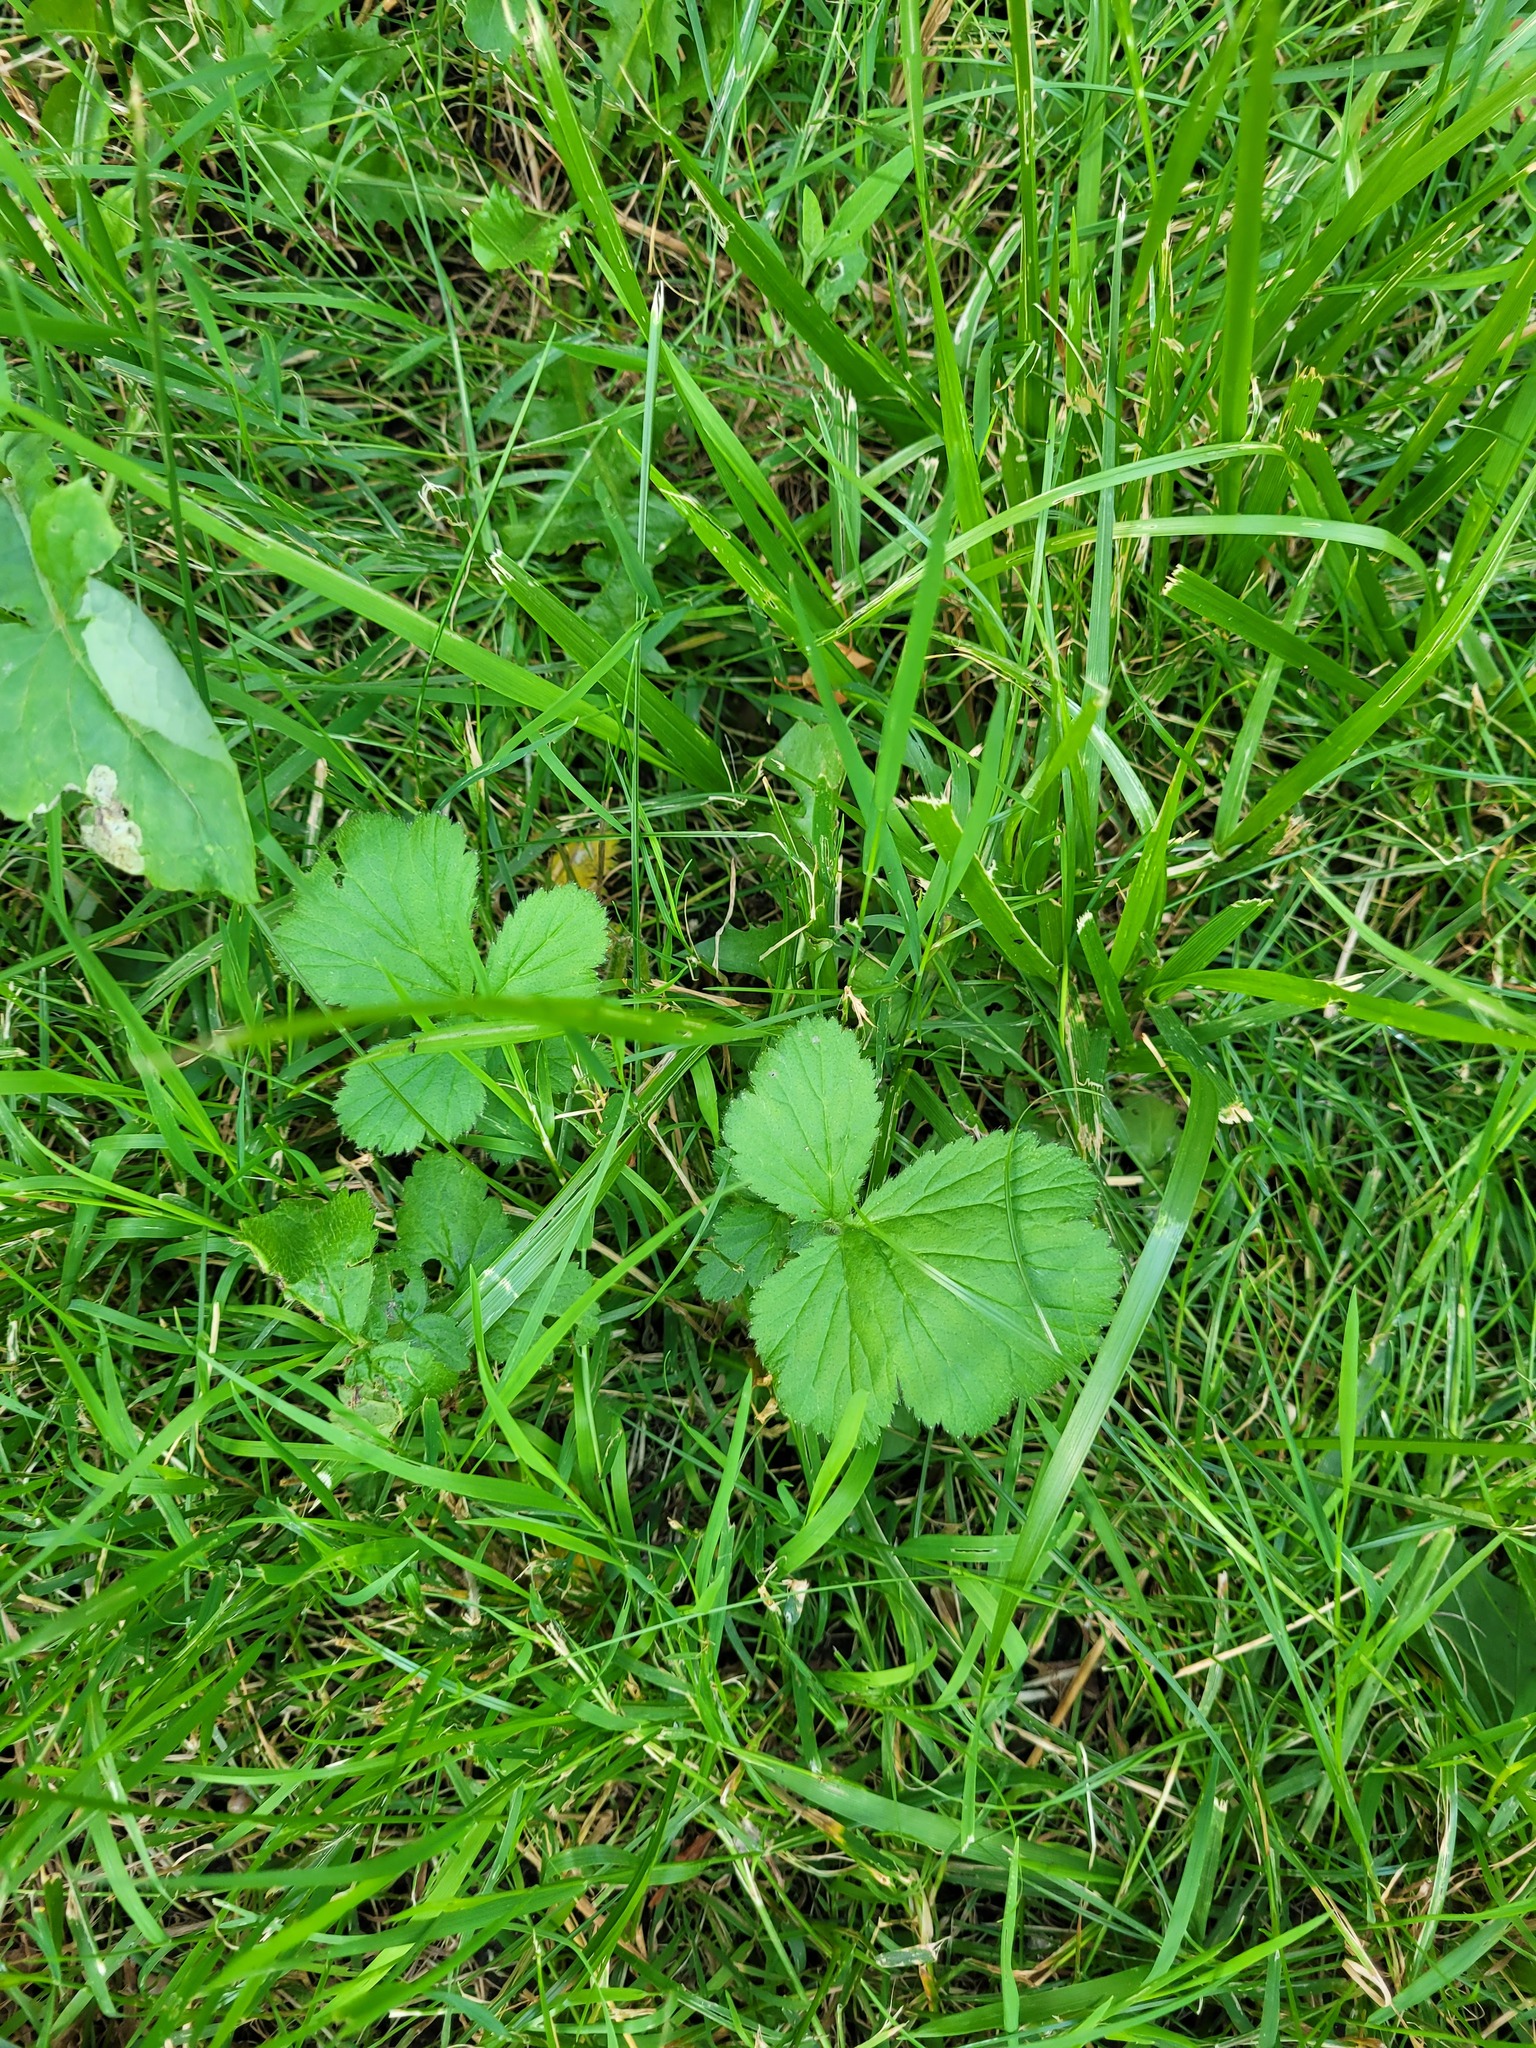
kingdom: Plantae
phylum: Tracheophyta
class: Magnoliopsida
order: Rosales
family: Rosaceae
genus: Geum
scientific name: Geum
